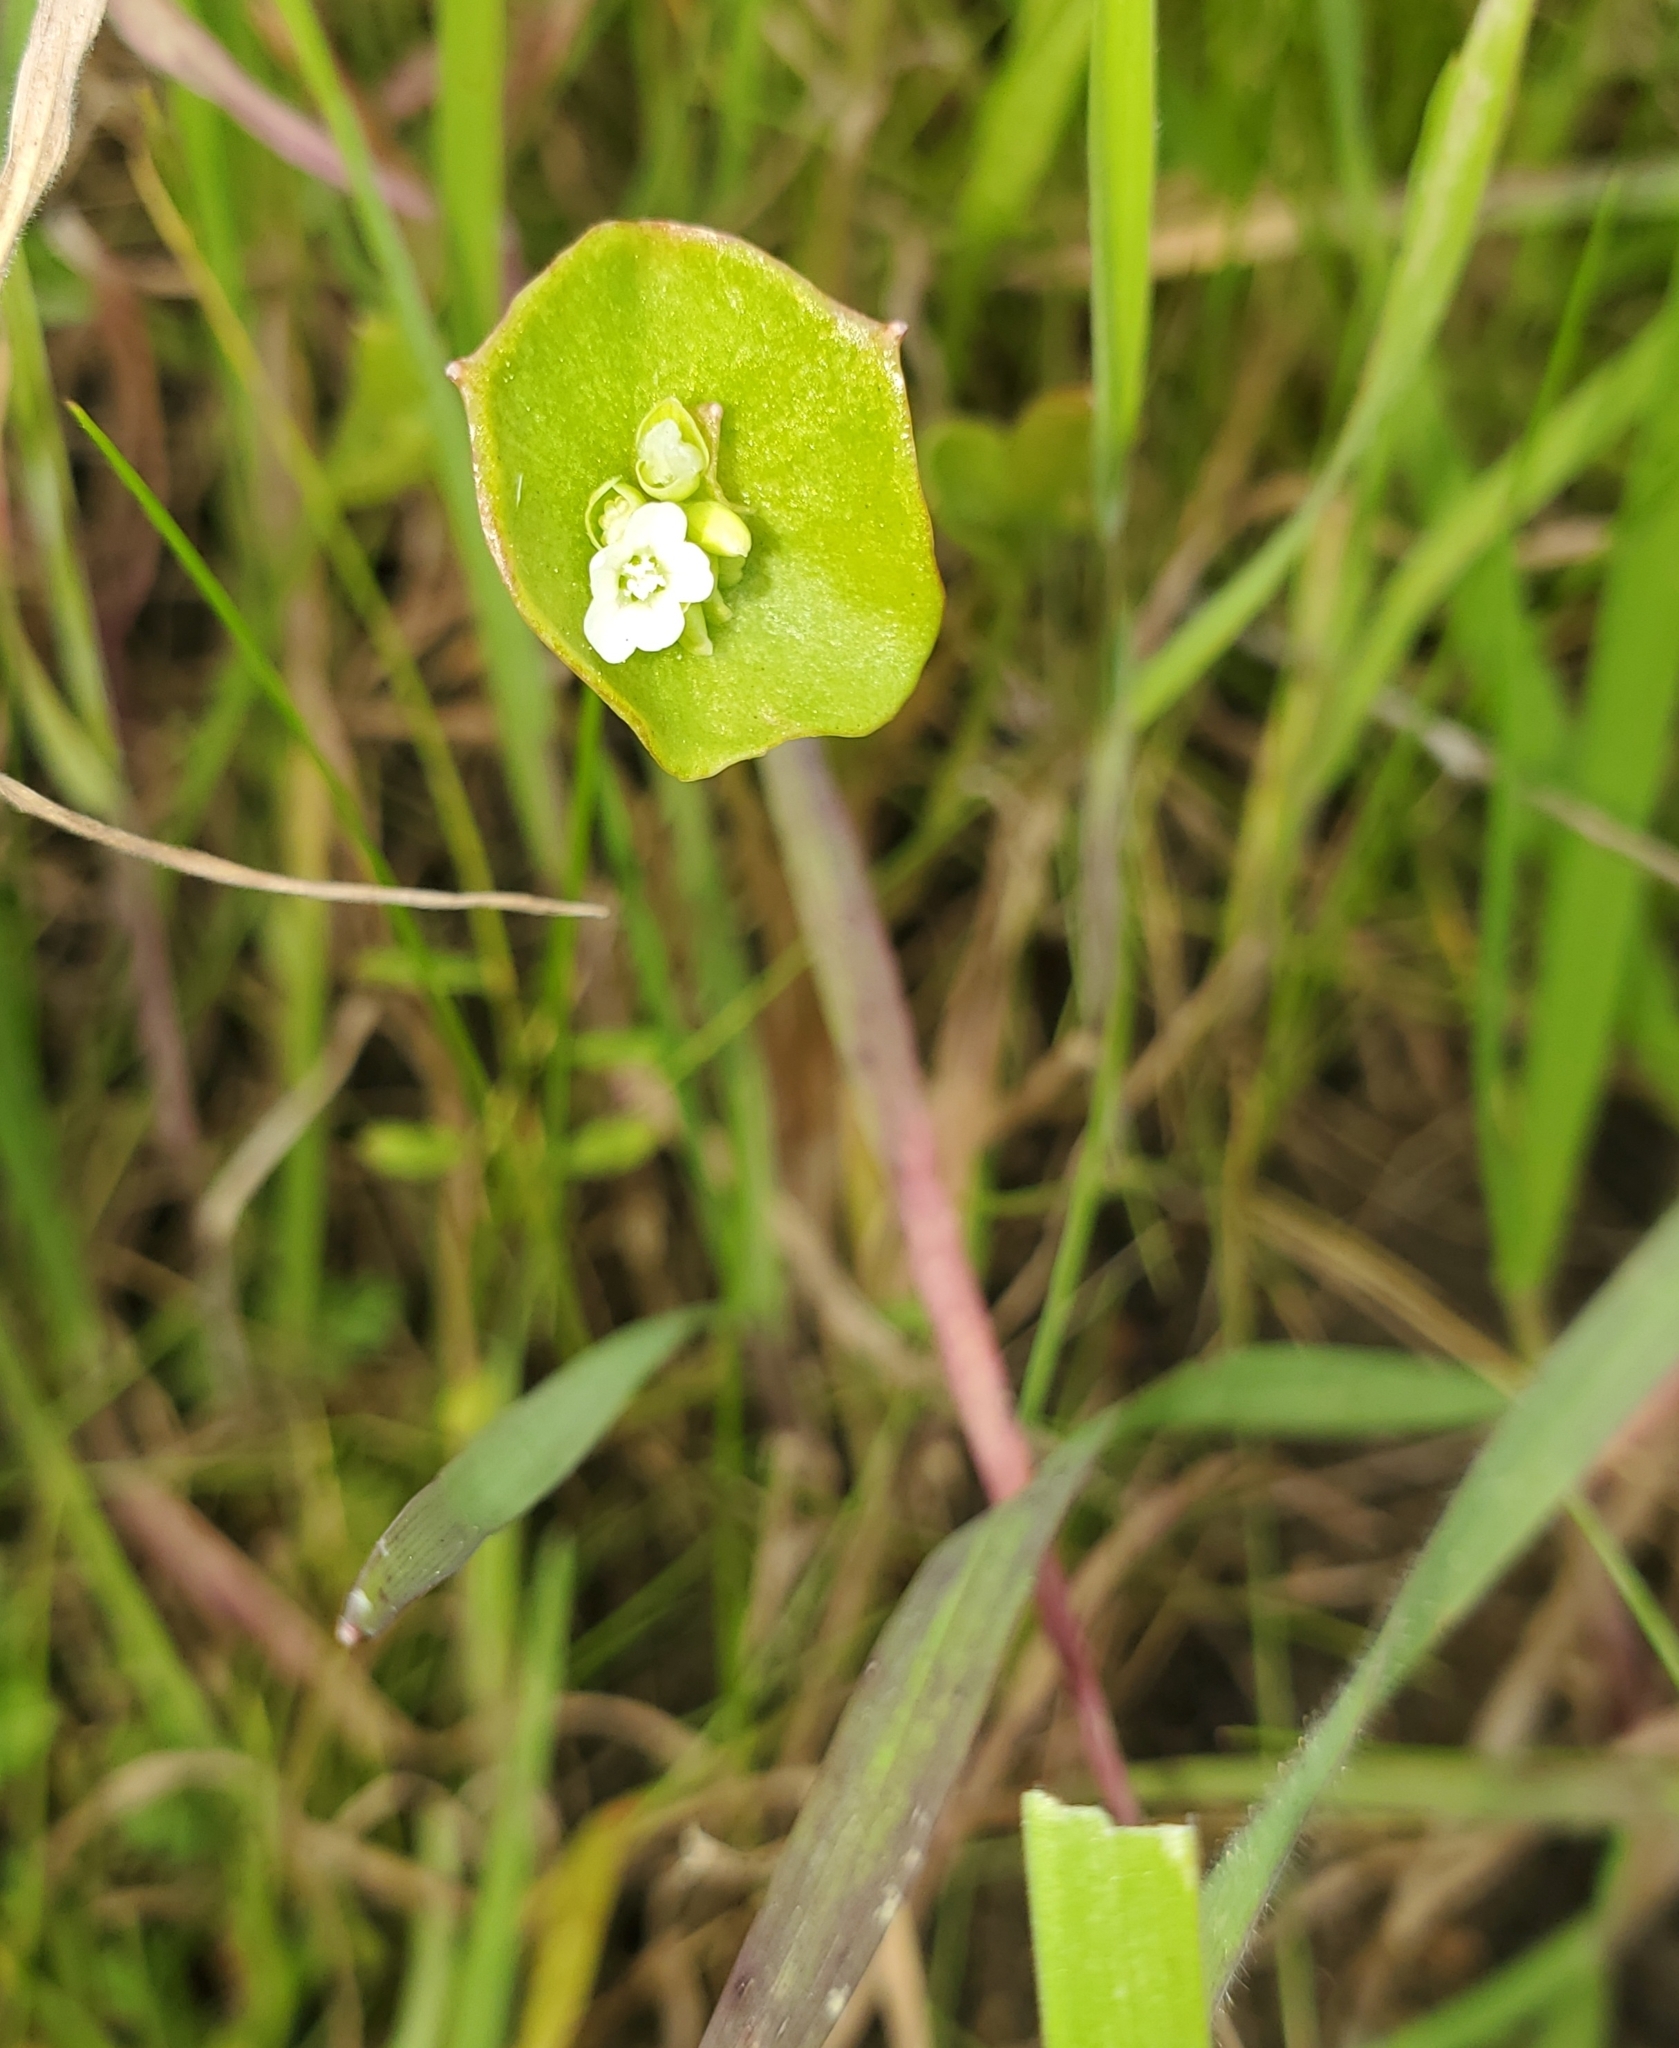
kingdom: Plantae
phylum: Tracheophyta
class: Magnoliopsida
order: Caryophyllales
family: Montiaceae
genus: Claytonia
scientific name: Claytonia perfoliata
